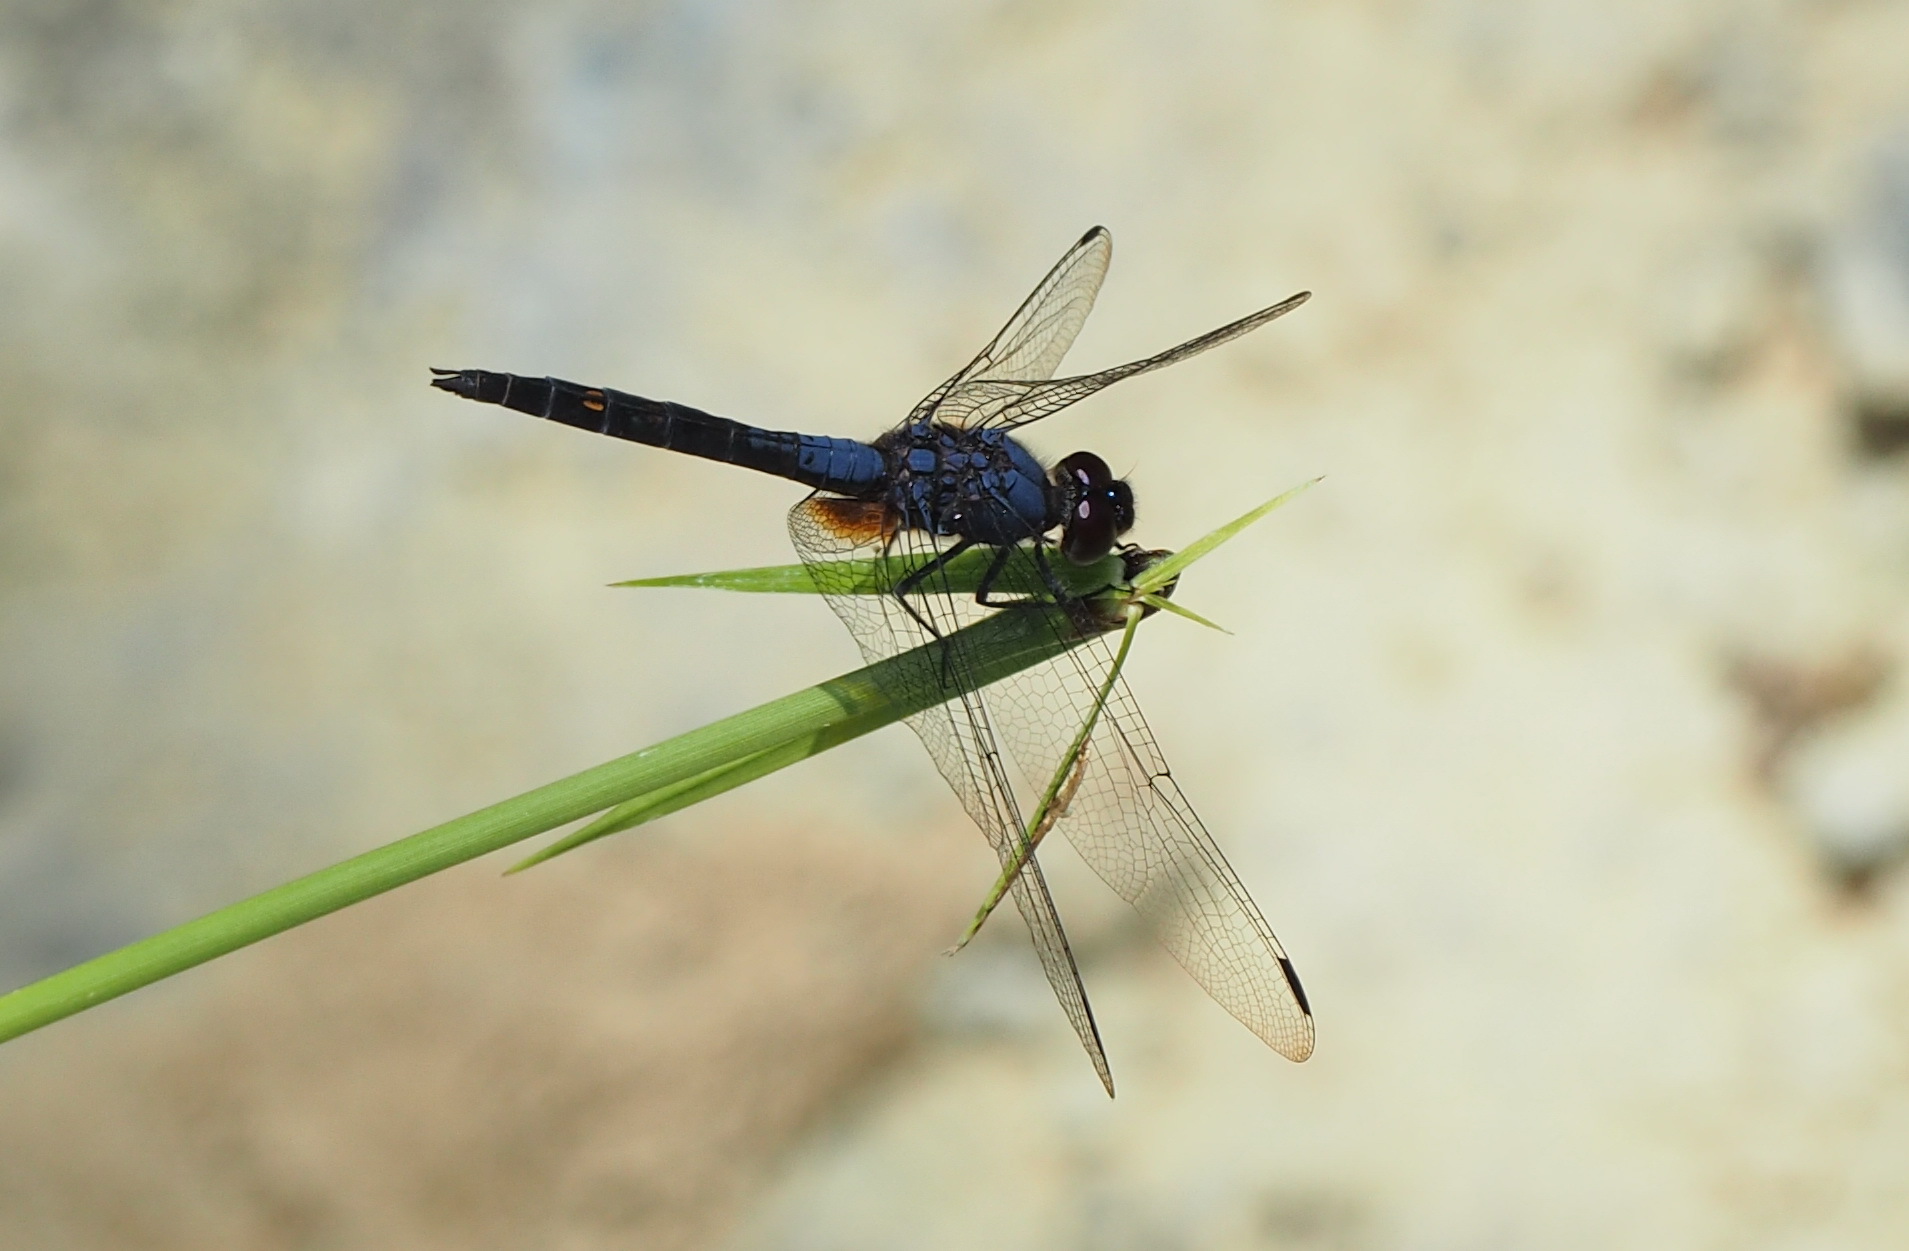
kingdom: Animalia
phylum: Arthropoda
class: Insecta
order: Odonata
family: Libellulidae
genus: Trithemis
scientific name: Trithemis festiva
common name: Indigo dropwing
